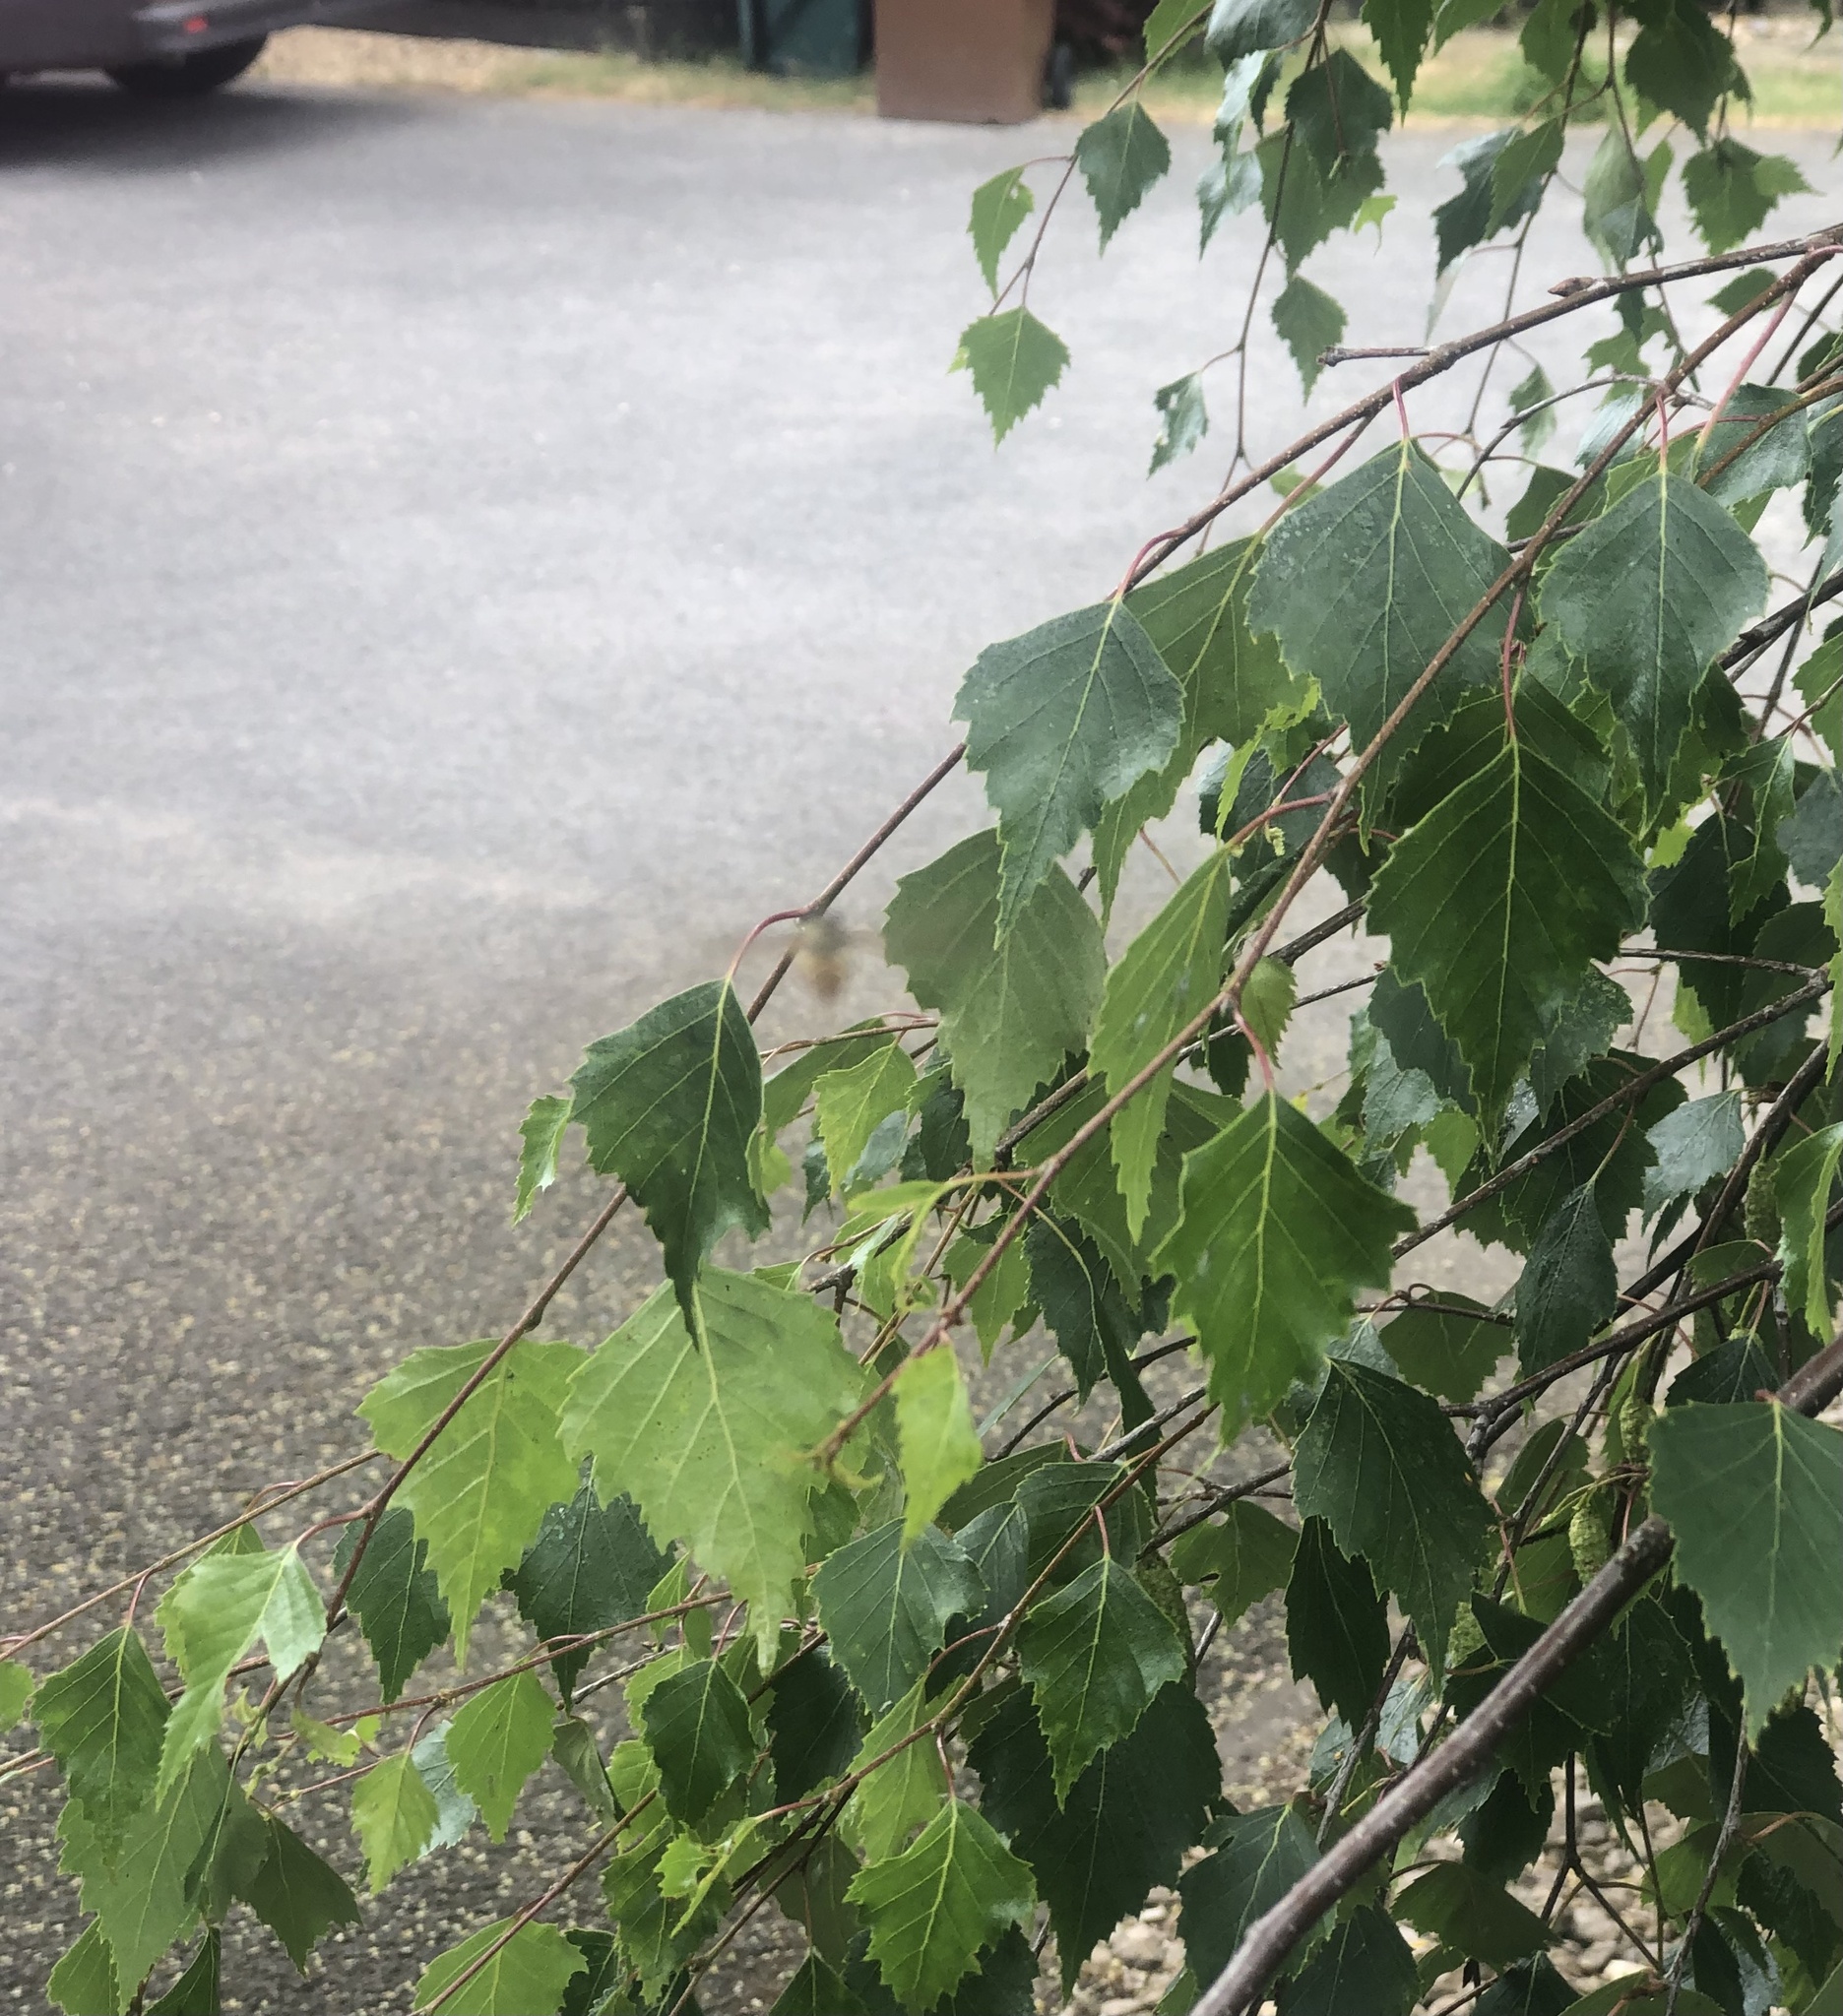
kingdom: Animalia
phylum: Arthropoda
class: Insecta
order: Diptera
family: Syrphidae
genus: Episyrphus
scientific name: Episyrphus balteatus
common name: Marmalade hoverfly
